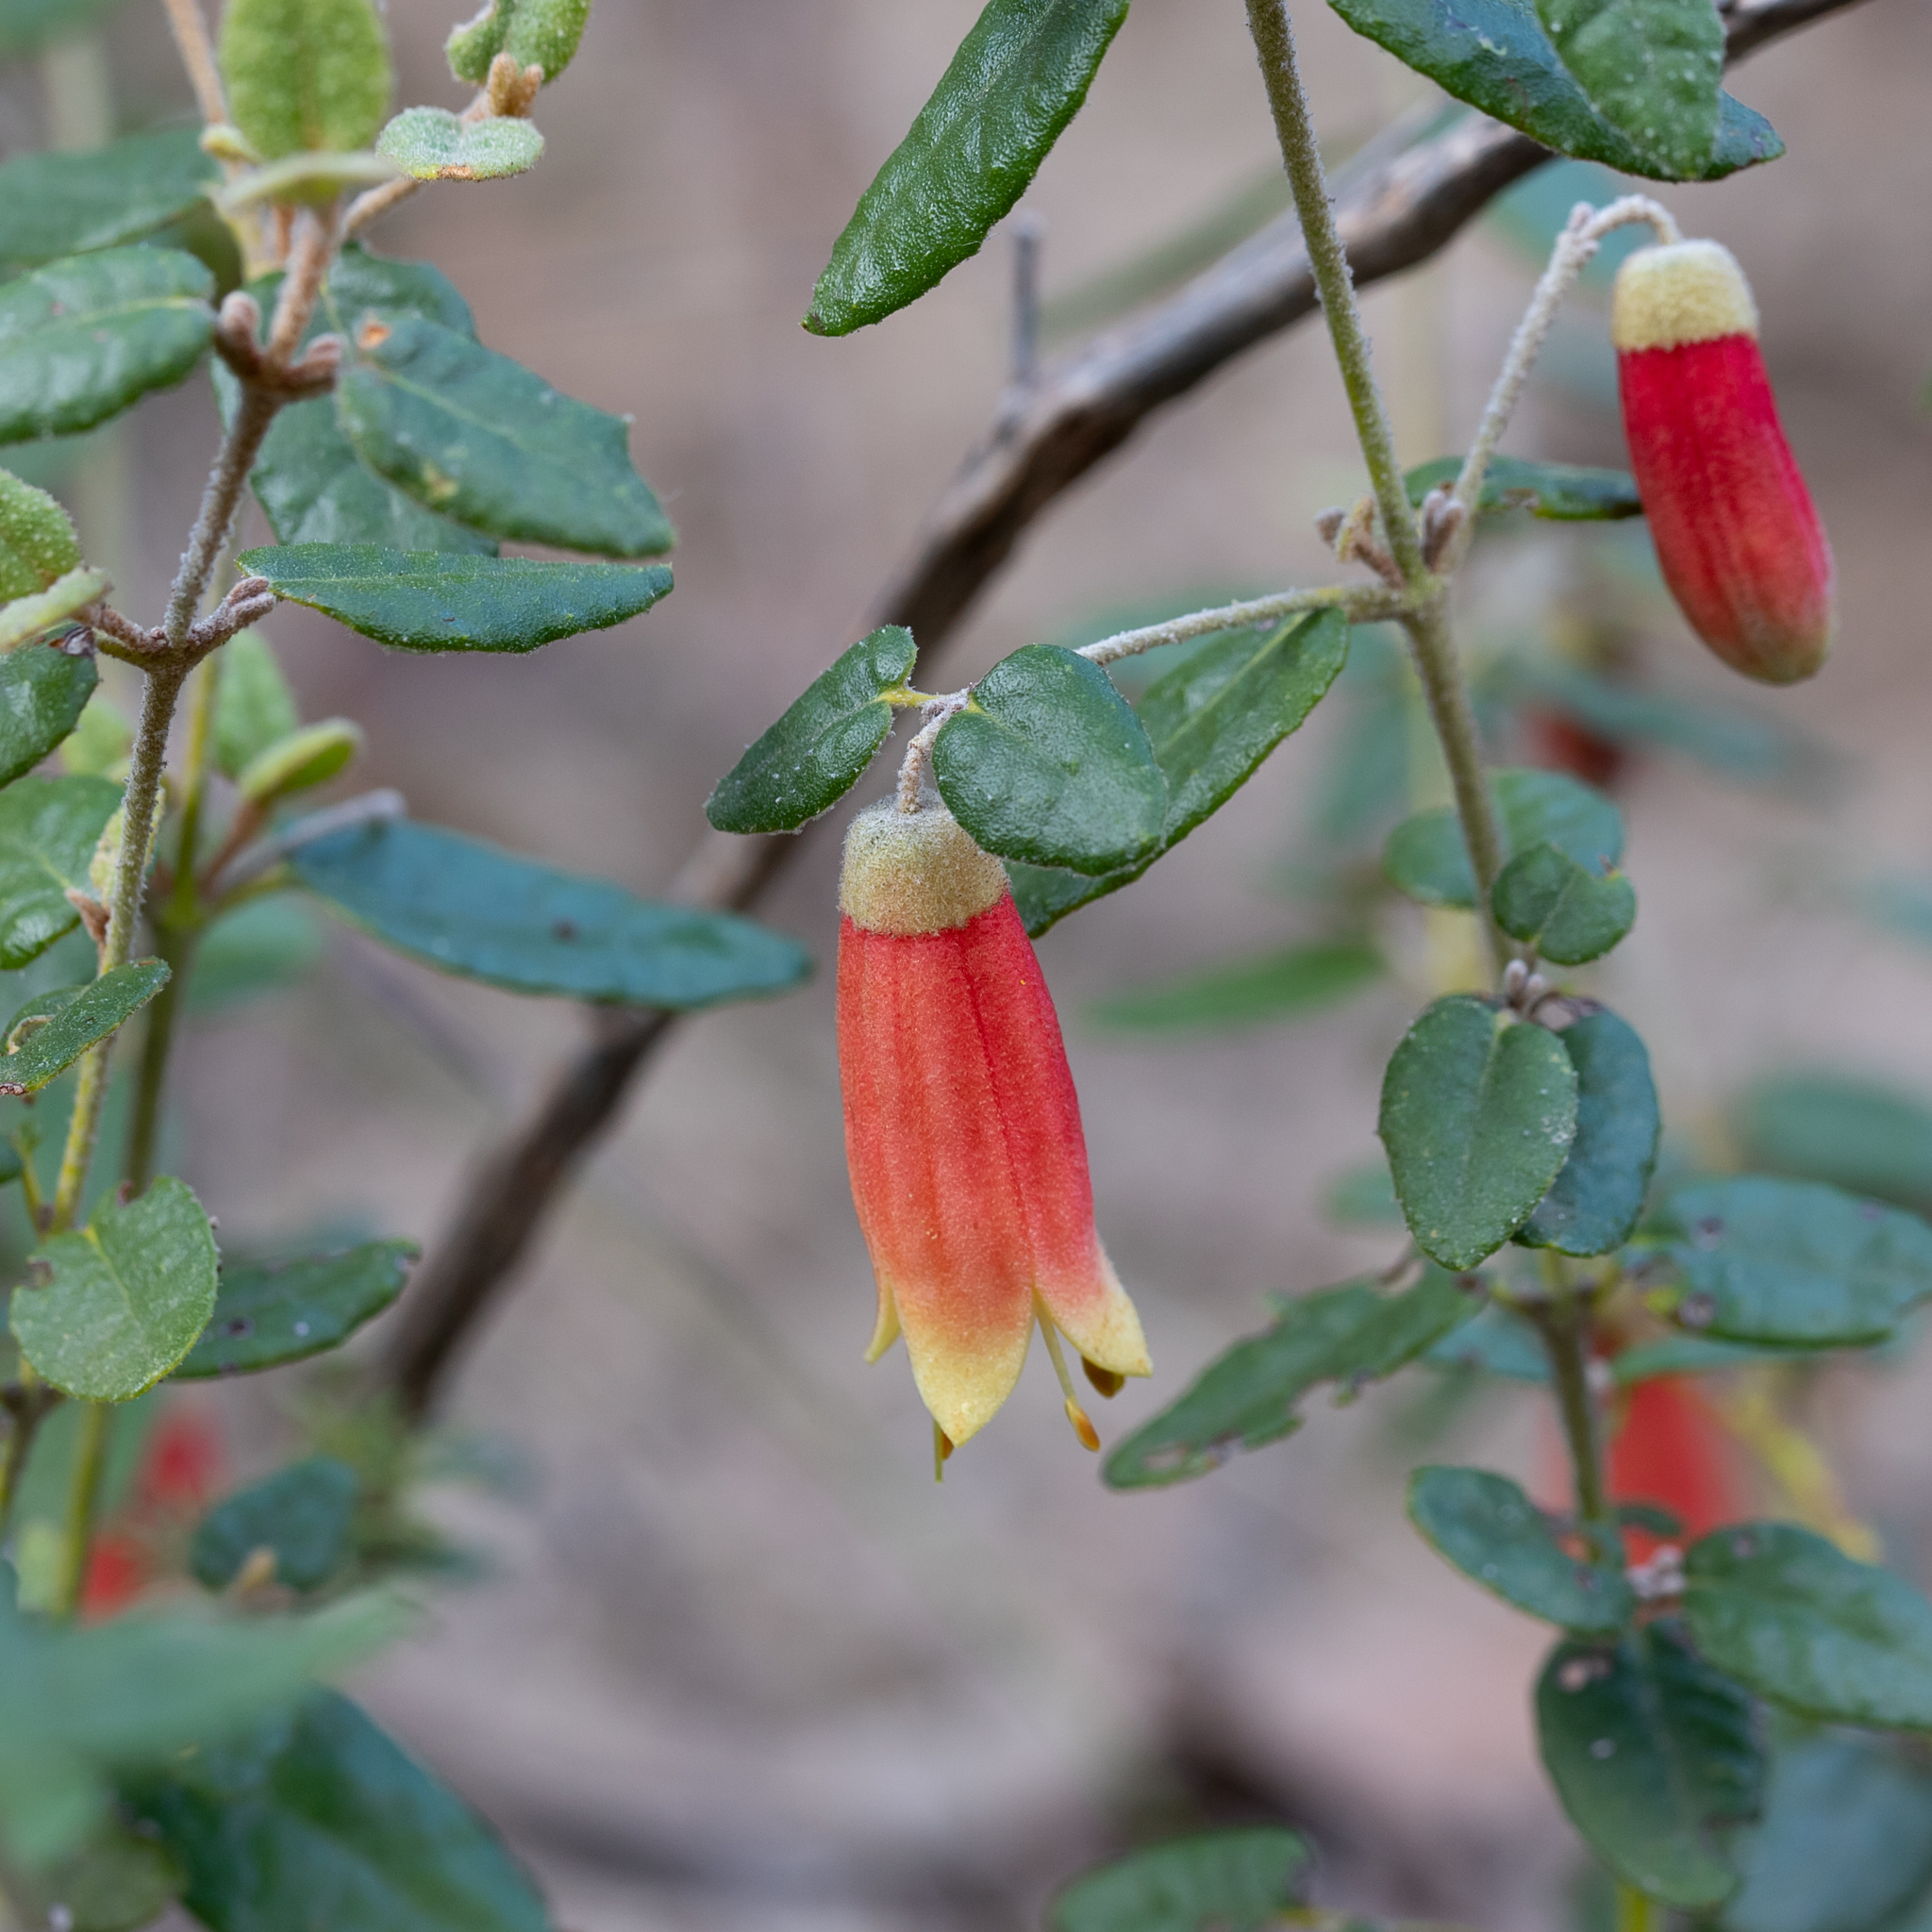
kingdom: Plantae
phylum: Tracheophyta
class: Magnoliopsida
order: Sapindales
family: Rutaceae
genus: Correa
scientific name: Correa reflexa
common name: Common correa
